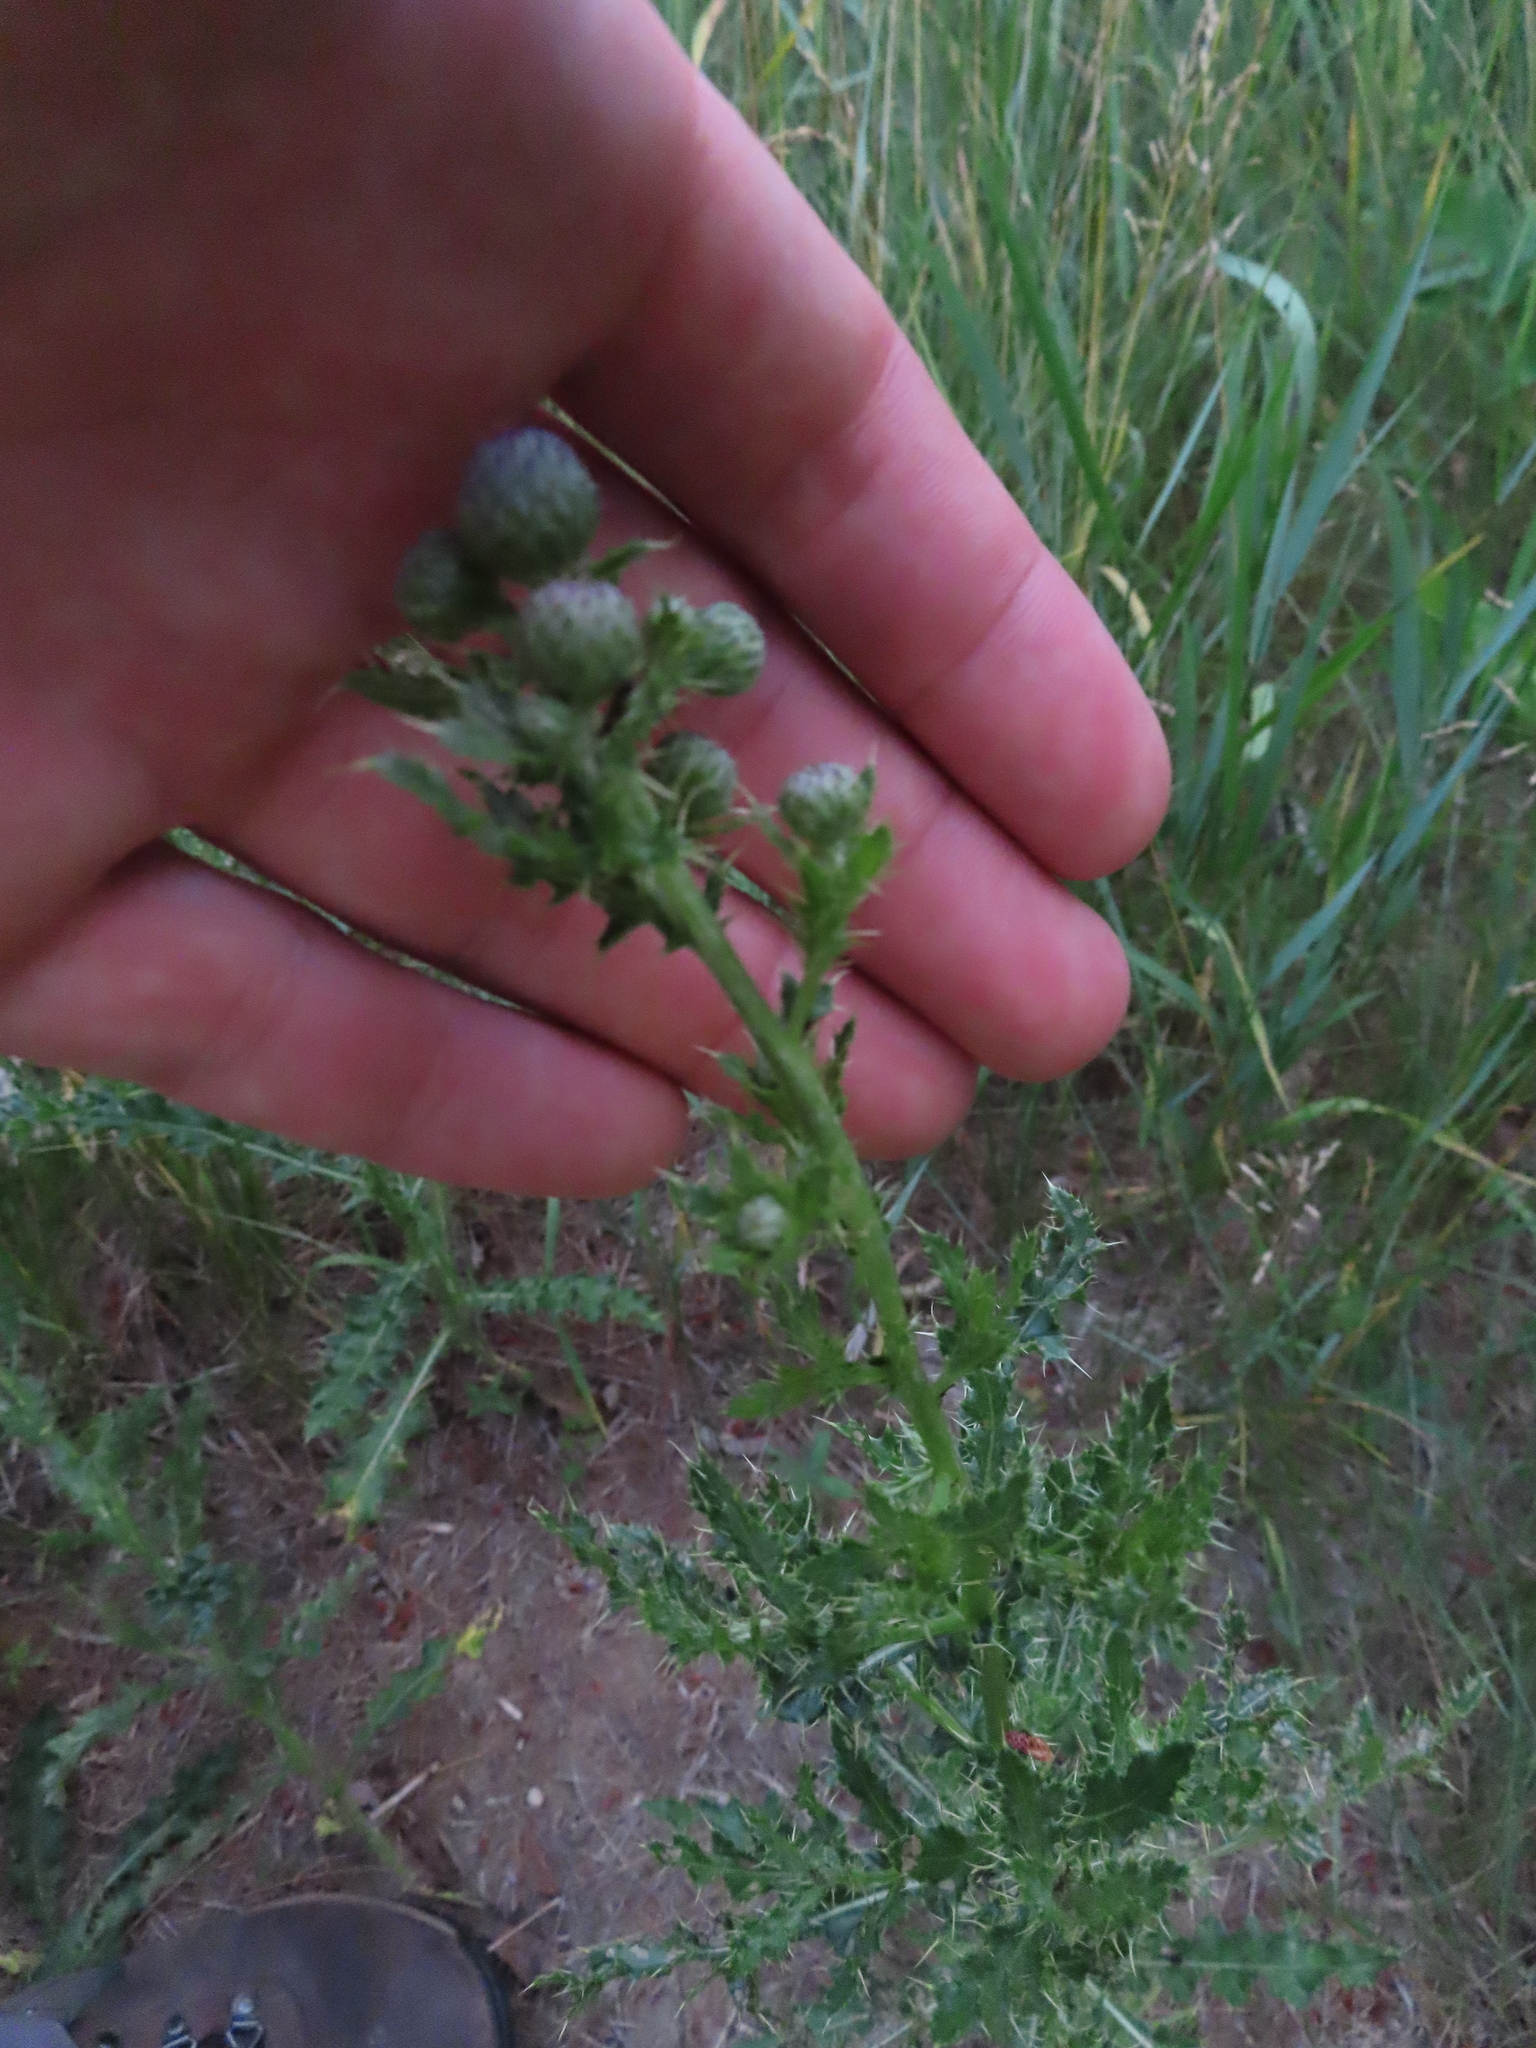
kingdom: Plantae
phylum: Tracheophyta
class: Magnoliopsida
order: Asterales
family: Asteraceae
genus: Cirsium
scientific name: Cirsium arvense
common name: Creeping thistle
